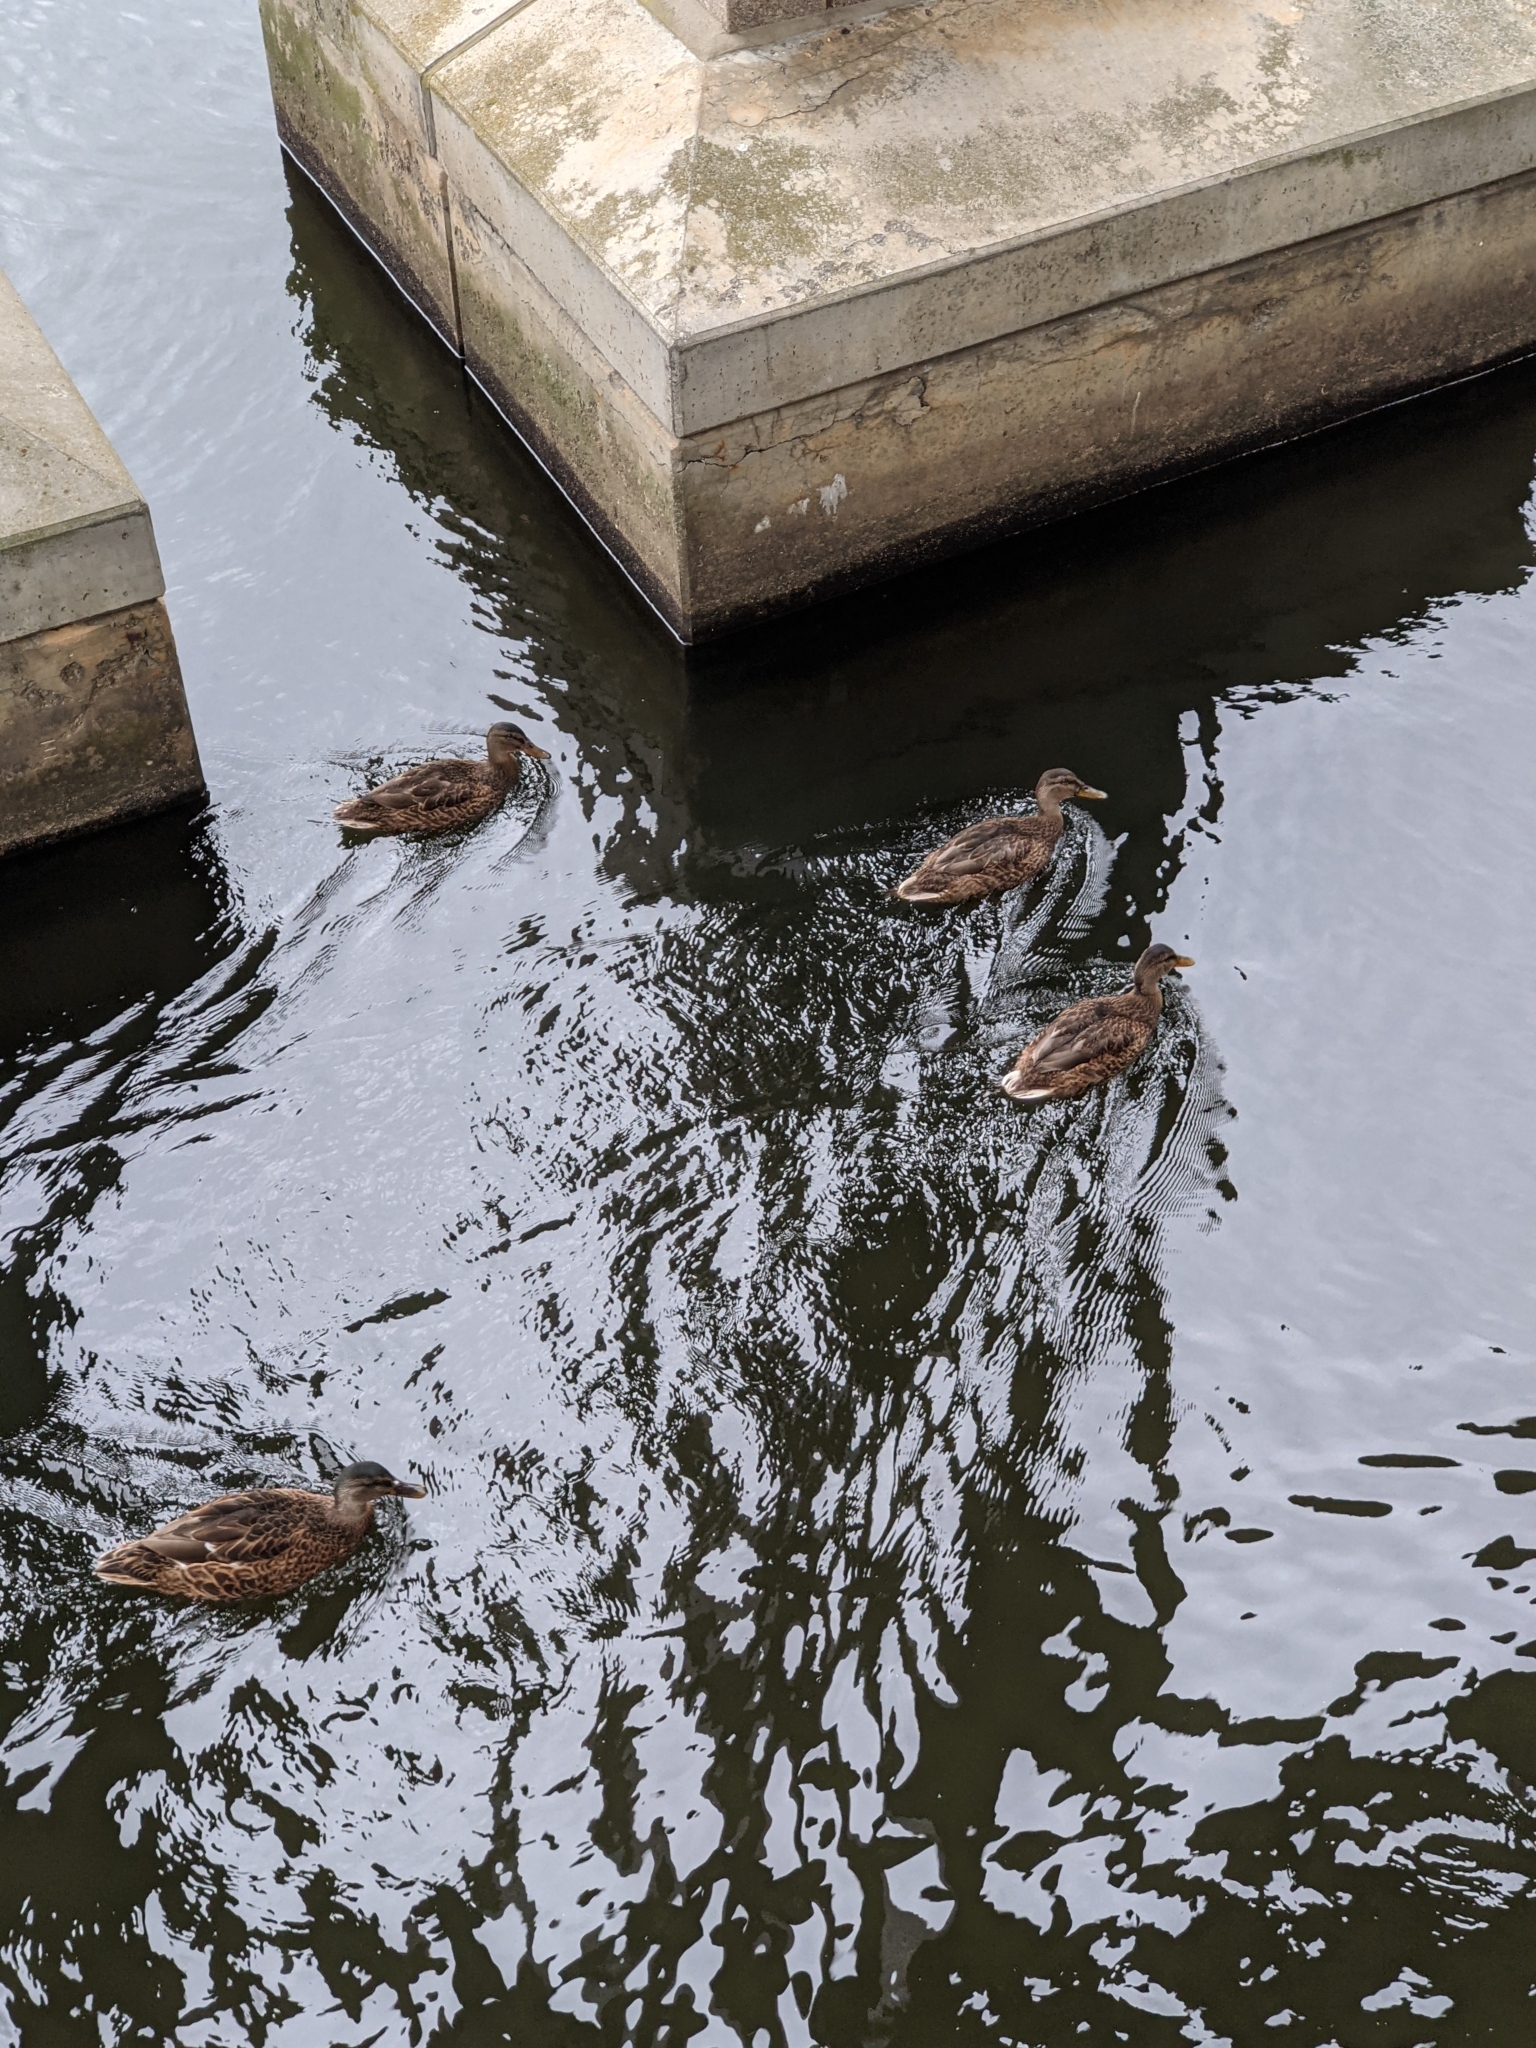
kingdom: Animalia
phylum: Chordata
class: Aves
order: Anseriformes
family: Anatidae
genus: Anas
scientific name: Anas platyrhynchos
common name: Mallard
